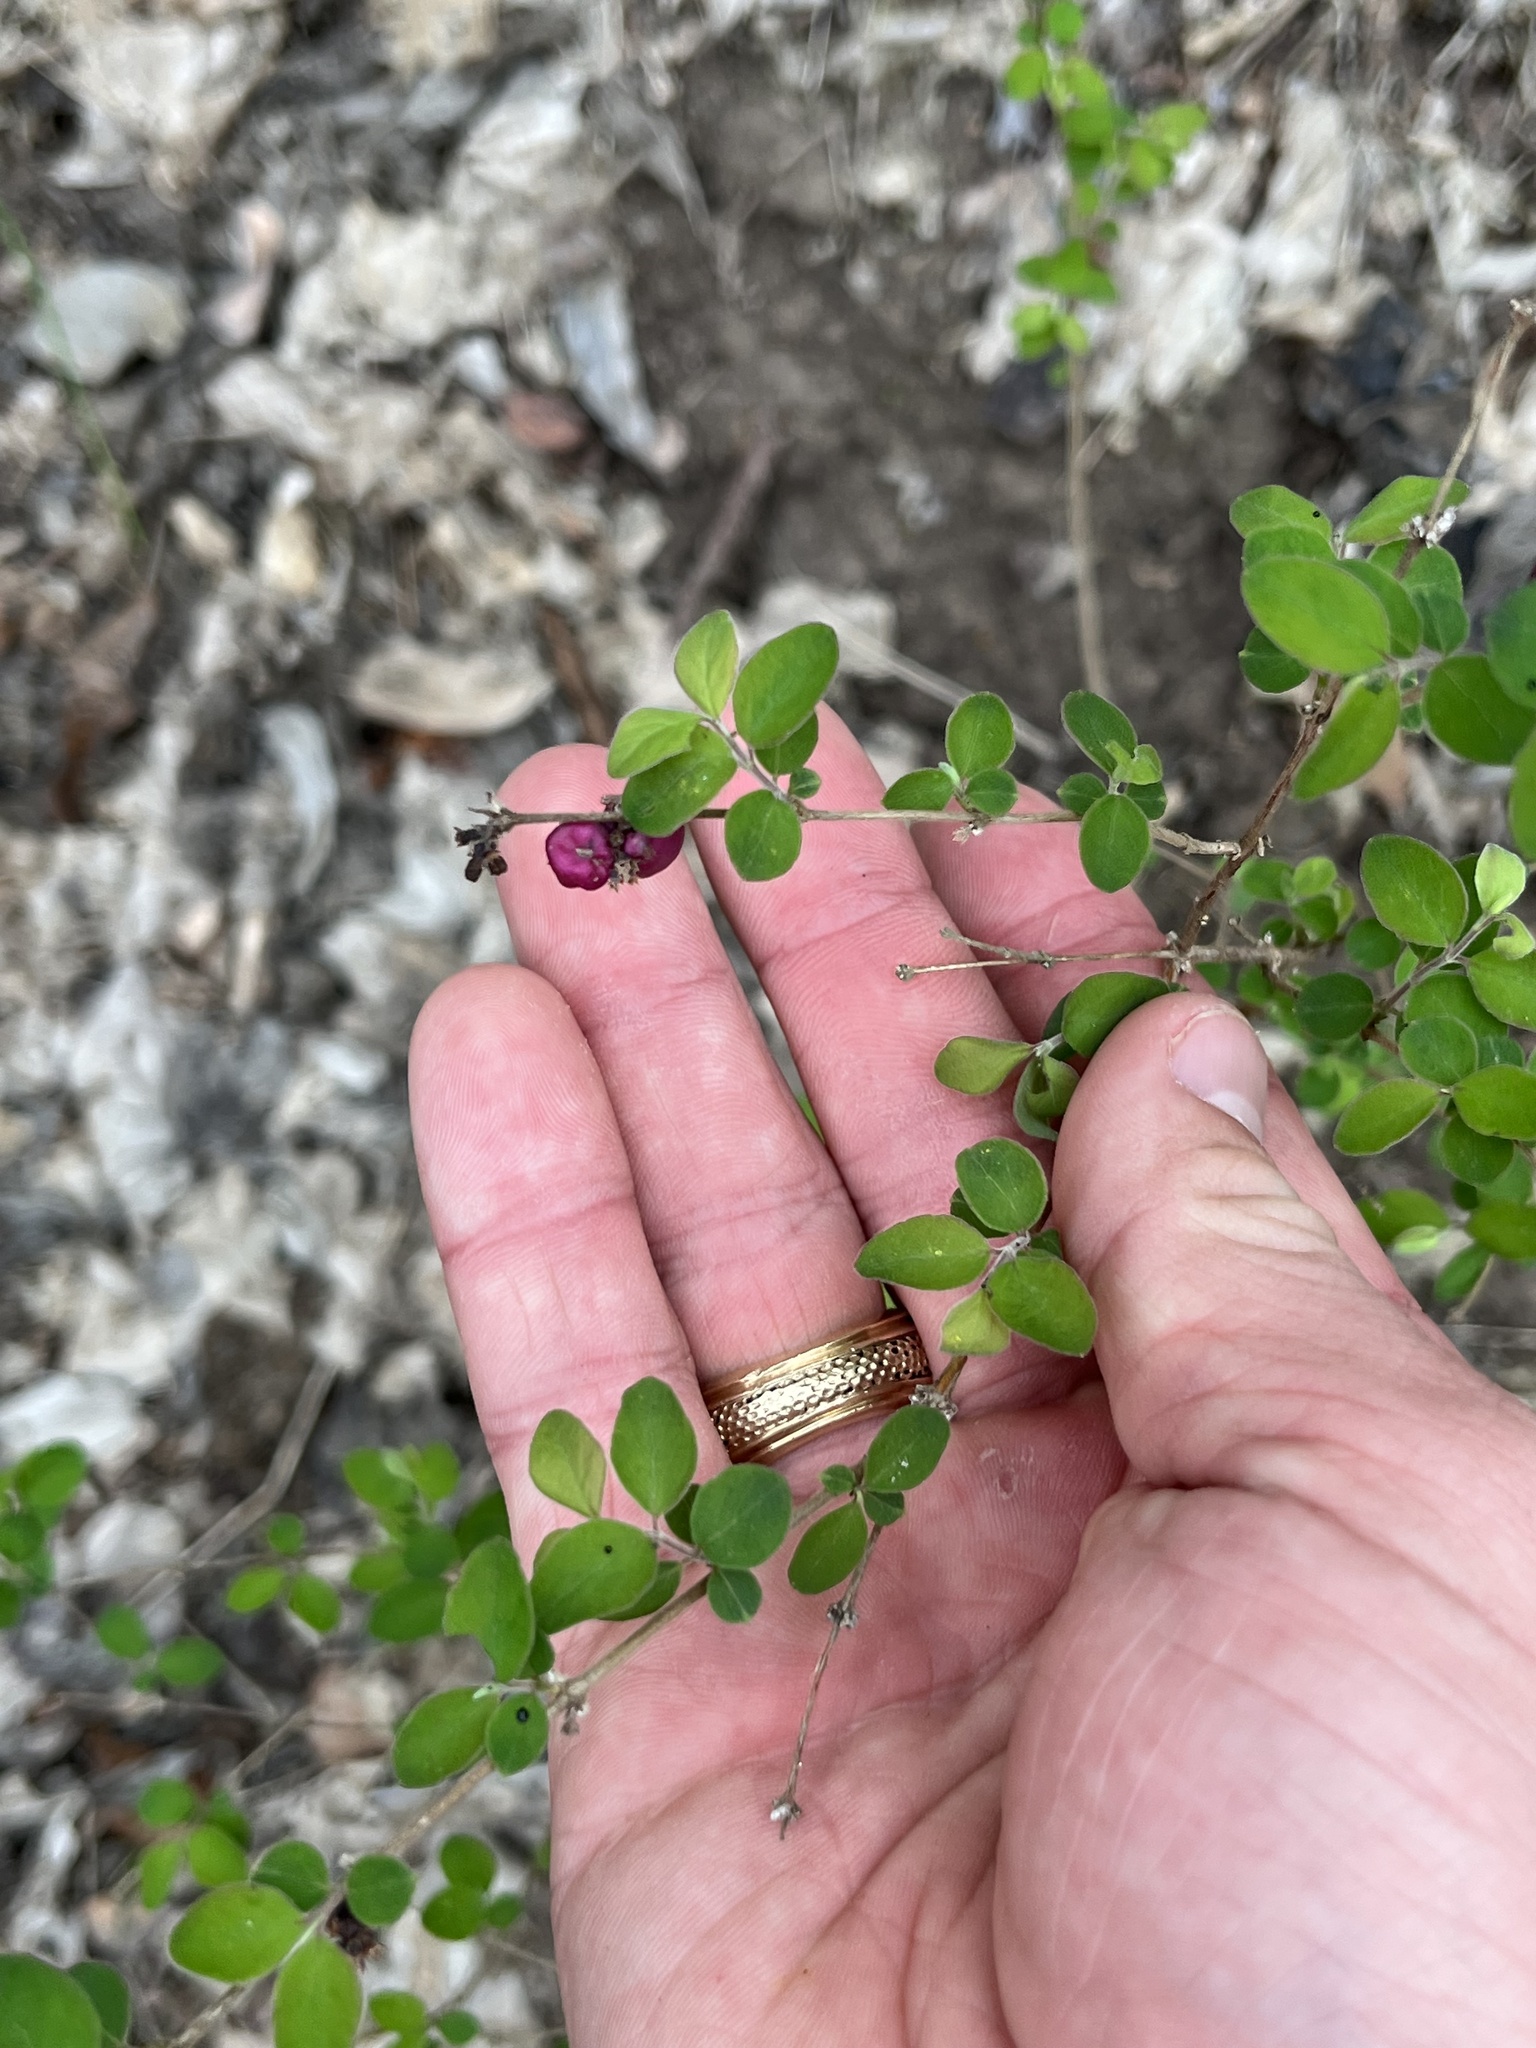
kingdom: Plantae
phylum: Tracheophyta
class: Magnoliopsida
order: Dipsacales
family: Caprifoliaceae
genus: Symphoricarpos
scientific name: Symphoricarpos orbiculatus
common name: Coralberry
